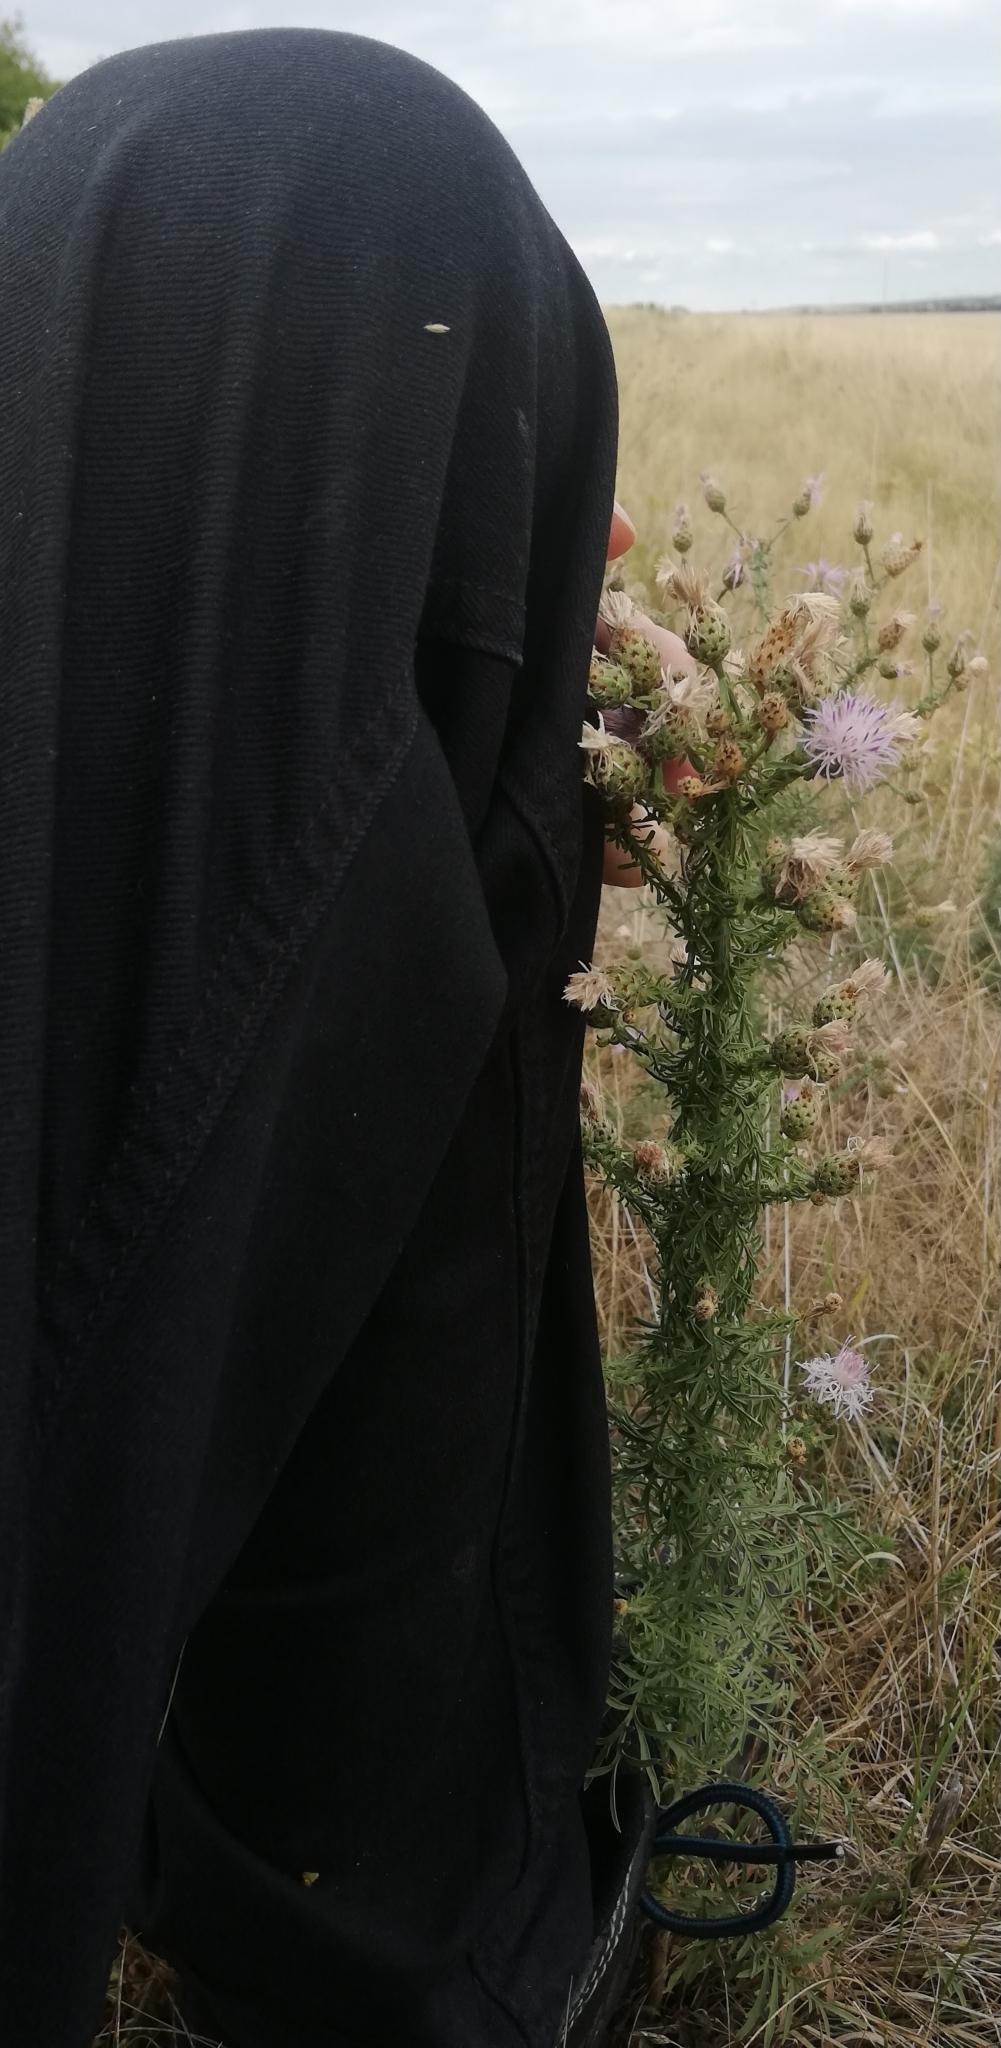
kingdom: Plantae
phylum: Tracheophyta
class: Magnoliopsida
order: Asterales
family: Asteraceae
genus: Centaurea
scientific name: Centaurea stoebe
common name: Spotted knapweed
